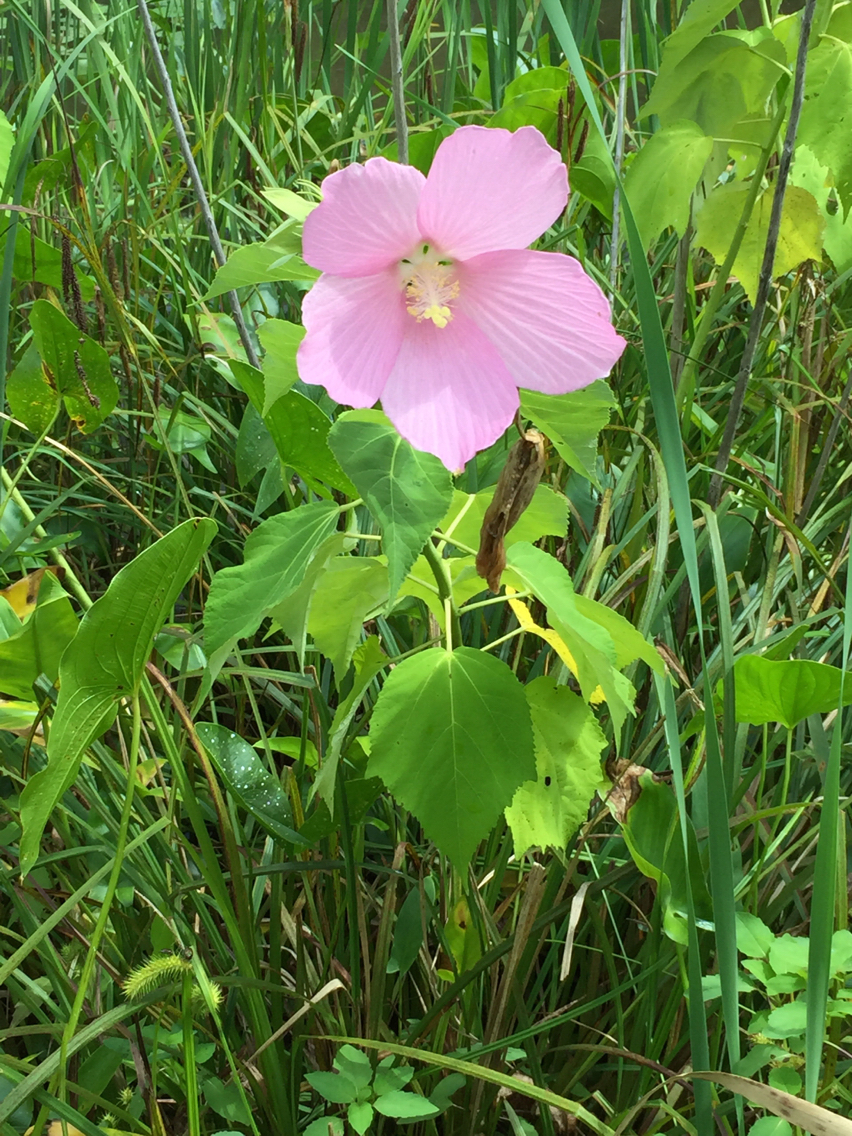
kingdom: Plantae
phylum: Tracheophyta
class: Magnoliopsida
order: Malvales
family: Malvaceae
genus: Hibiscus
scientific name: Hibiscus moscheutos
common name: Common rose-mallow
